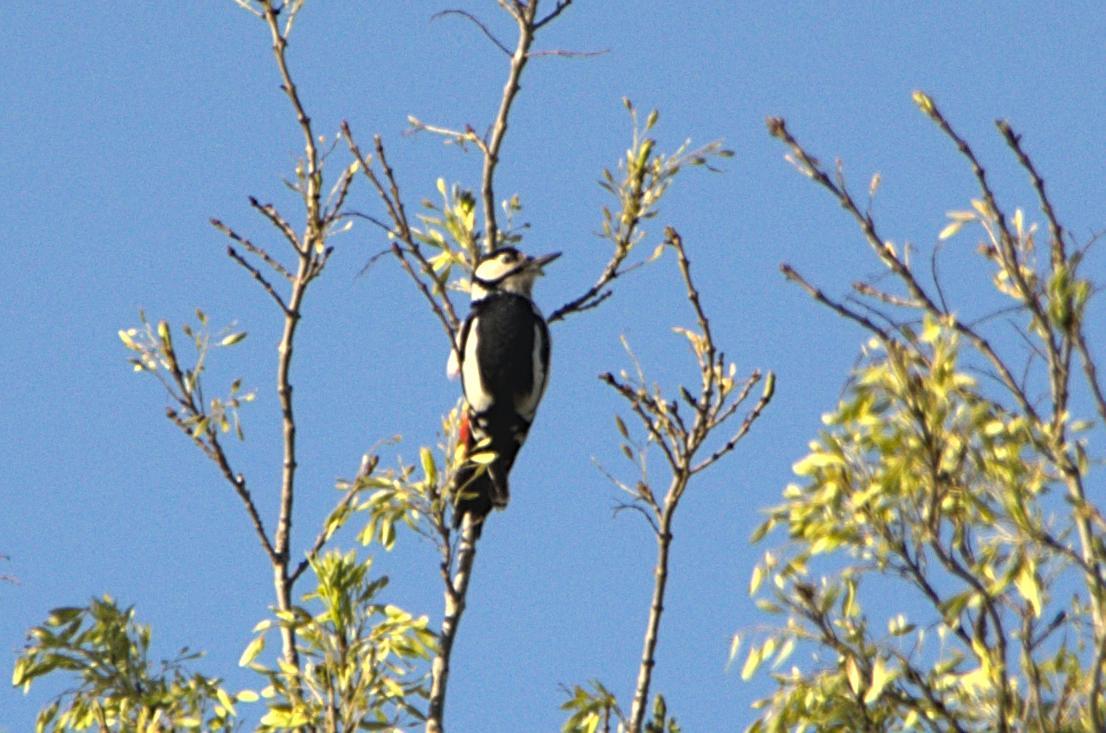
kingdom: Animalia
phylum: Chordata
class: Aves
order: Piciformes
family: Picidae
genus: Dendrocopos
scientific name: Dendrocopos major
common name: Great spotted woodpecker
